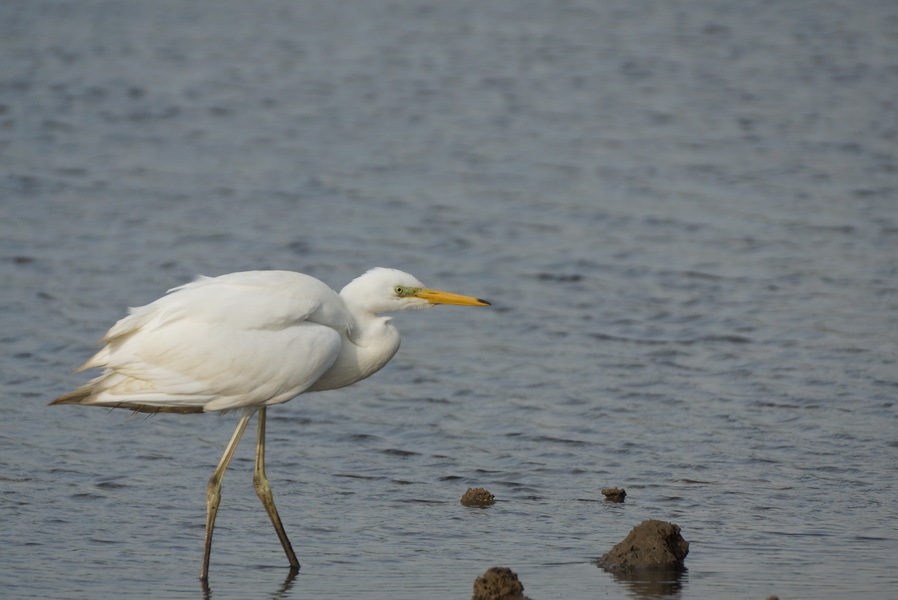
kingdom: Animalia
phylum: Chordata
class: Aves
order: Pelecaniformes
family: Ardeidae
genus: Ardea
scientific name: Ardea alba
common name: Great egret
